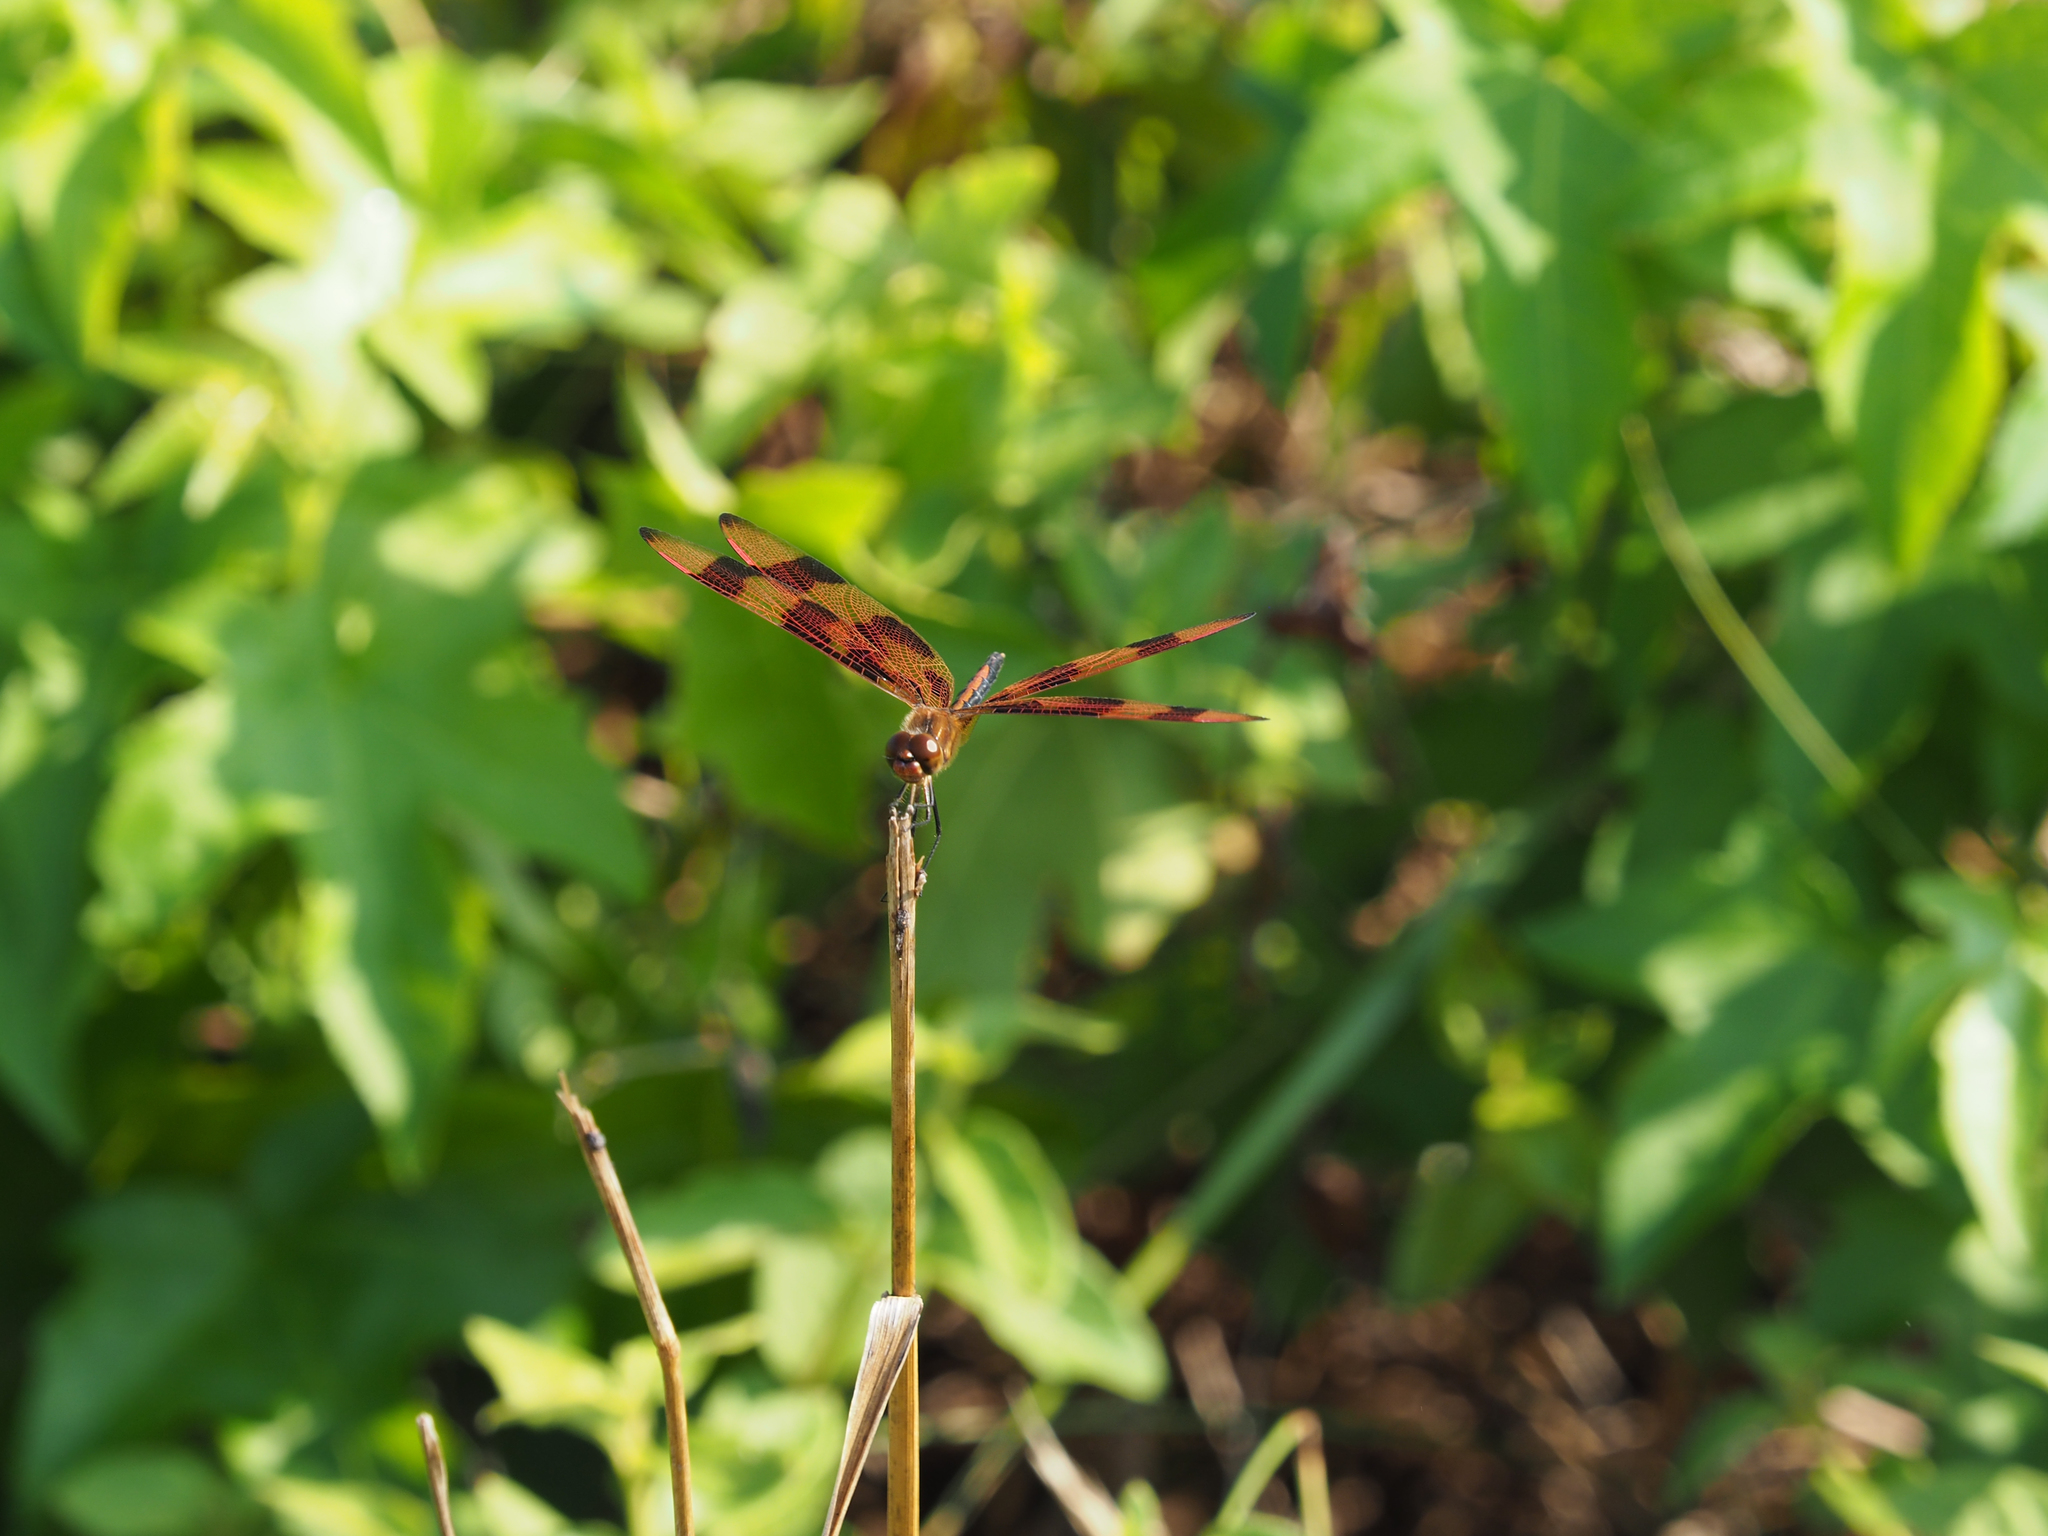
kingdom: Animalia
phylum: Arthropoda
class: Insecta
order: Odonata
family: Libellulidae
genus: Celithemis
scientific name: Celithemis eponina
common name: Halloween pennant
